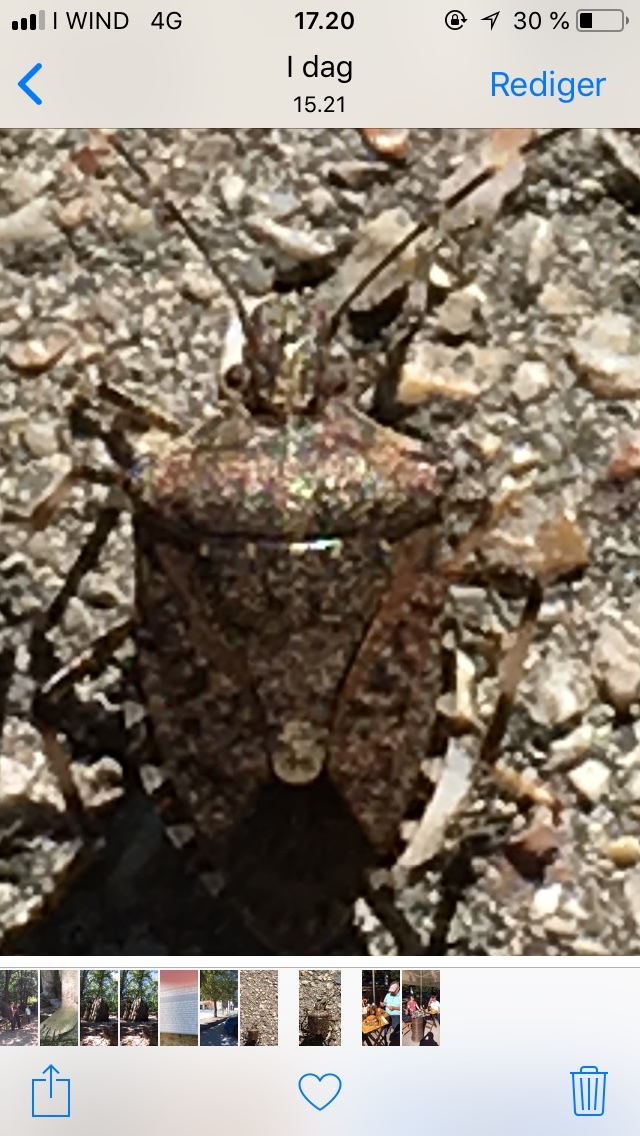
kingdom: Animalia
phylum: Arthropoda
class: Insecta
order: Hemiptera
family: Pentatomidae
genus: Halyomorpha
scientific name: Halyomorpha halys
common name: Brown marmorated stink bug
